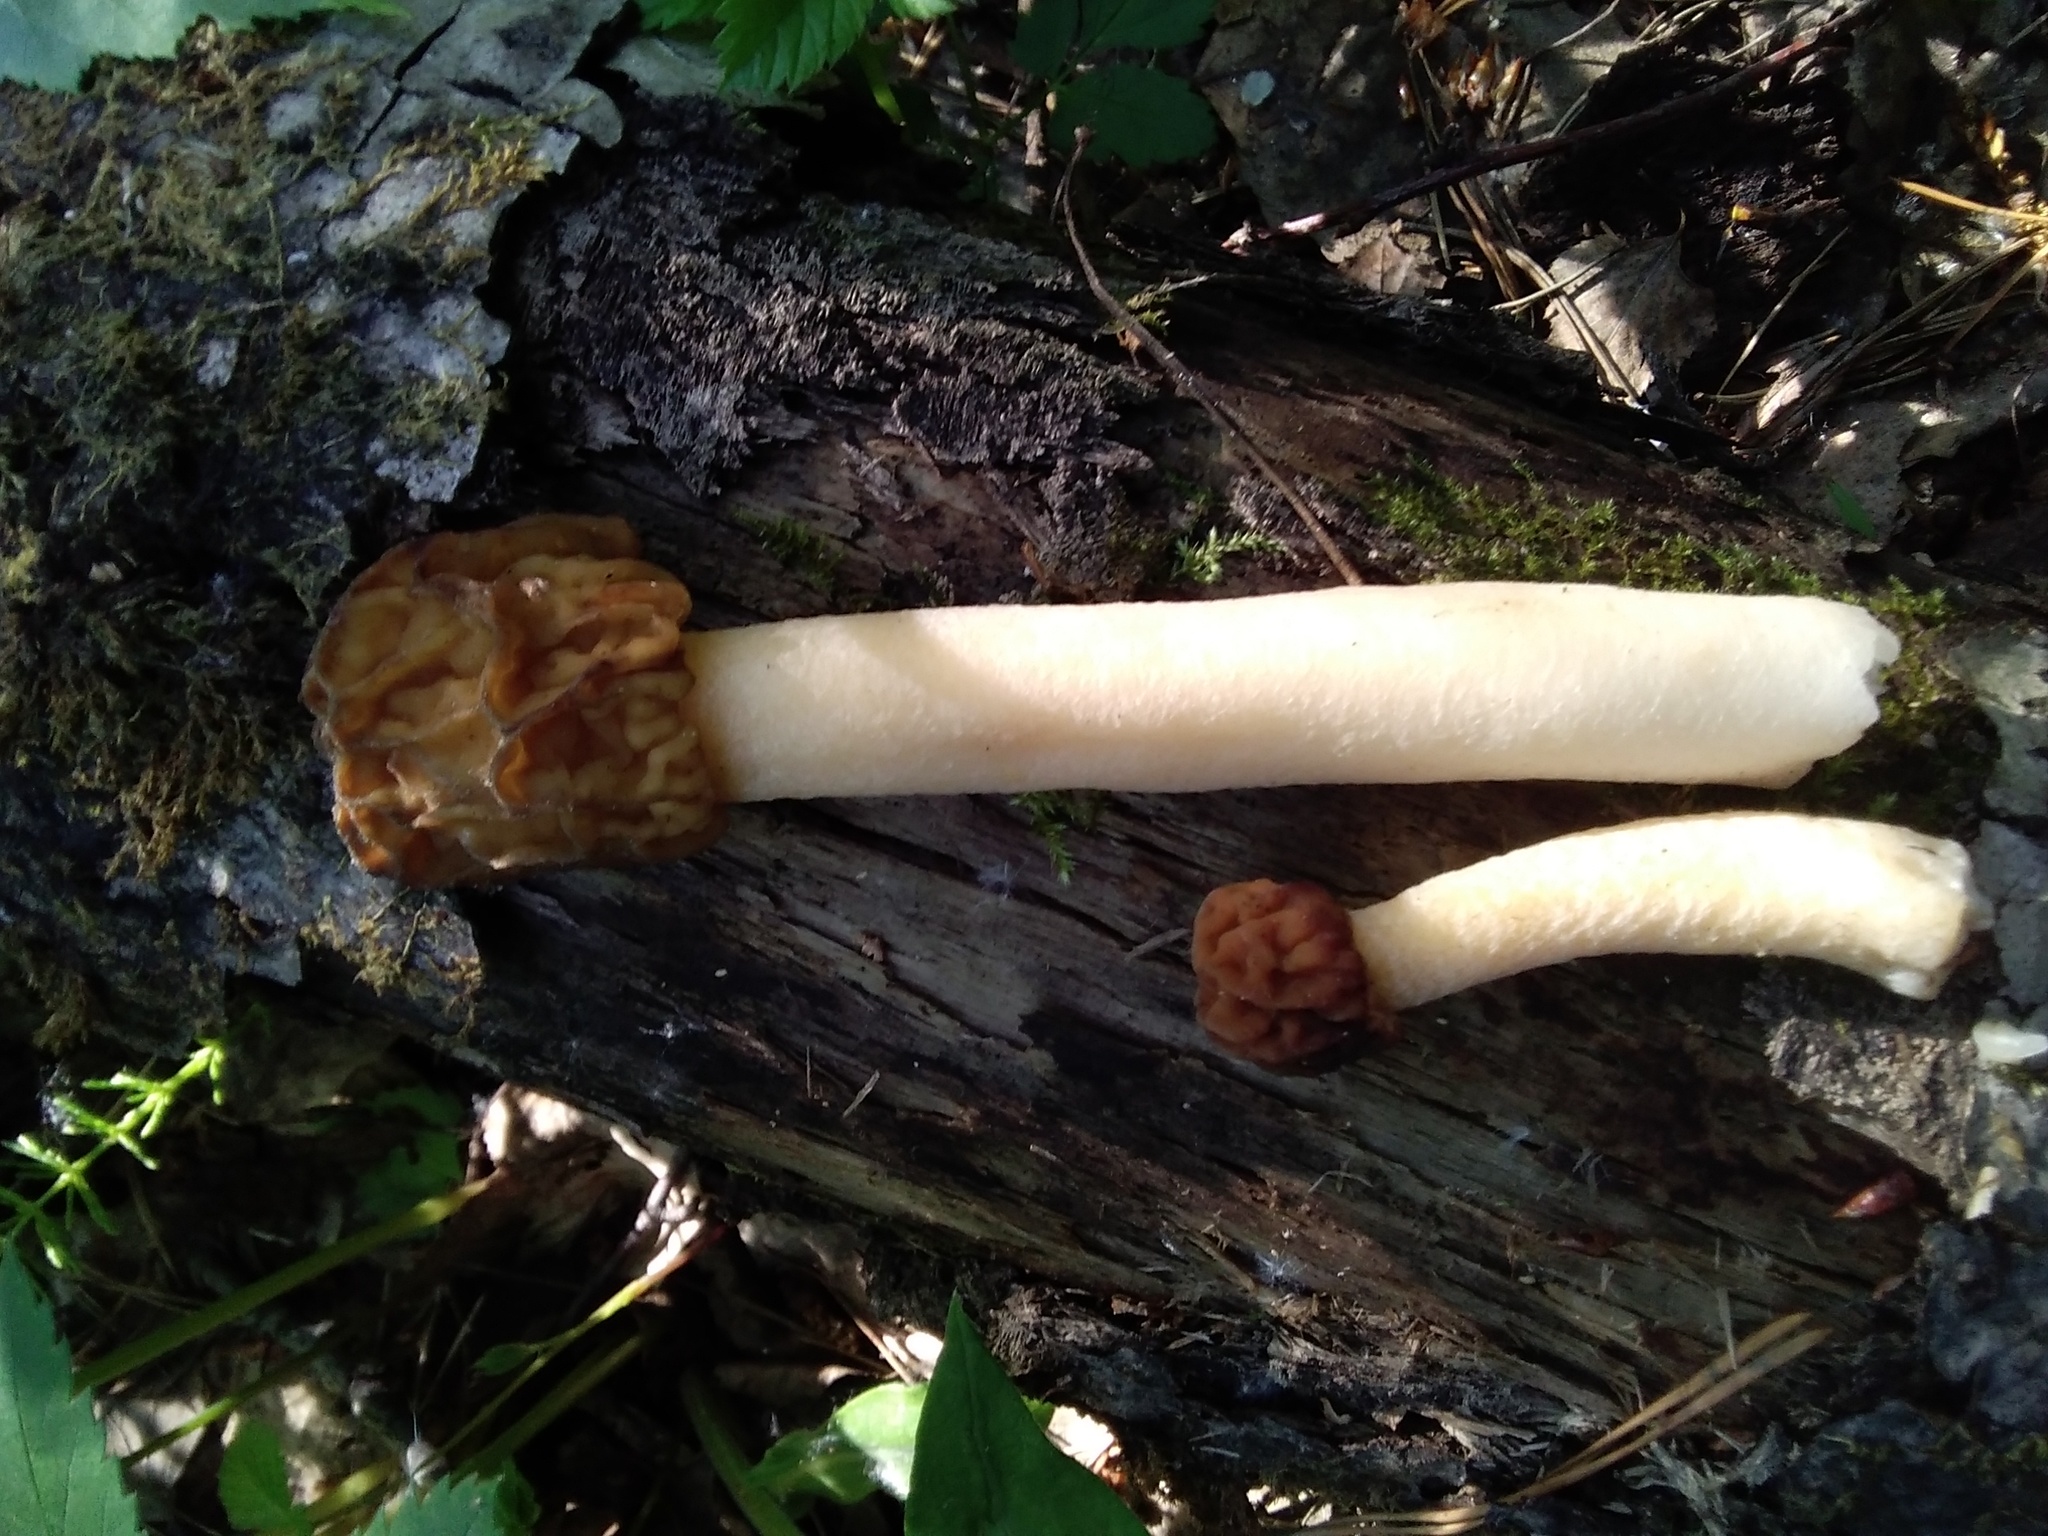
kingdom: Fungi
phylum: Ascomycota
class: Pezizomycetes
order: Pezizales
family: Morchellaceae
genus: Verpa
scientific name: Verpa bohemica
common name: Wrinkled thimble morel
